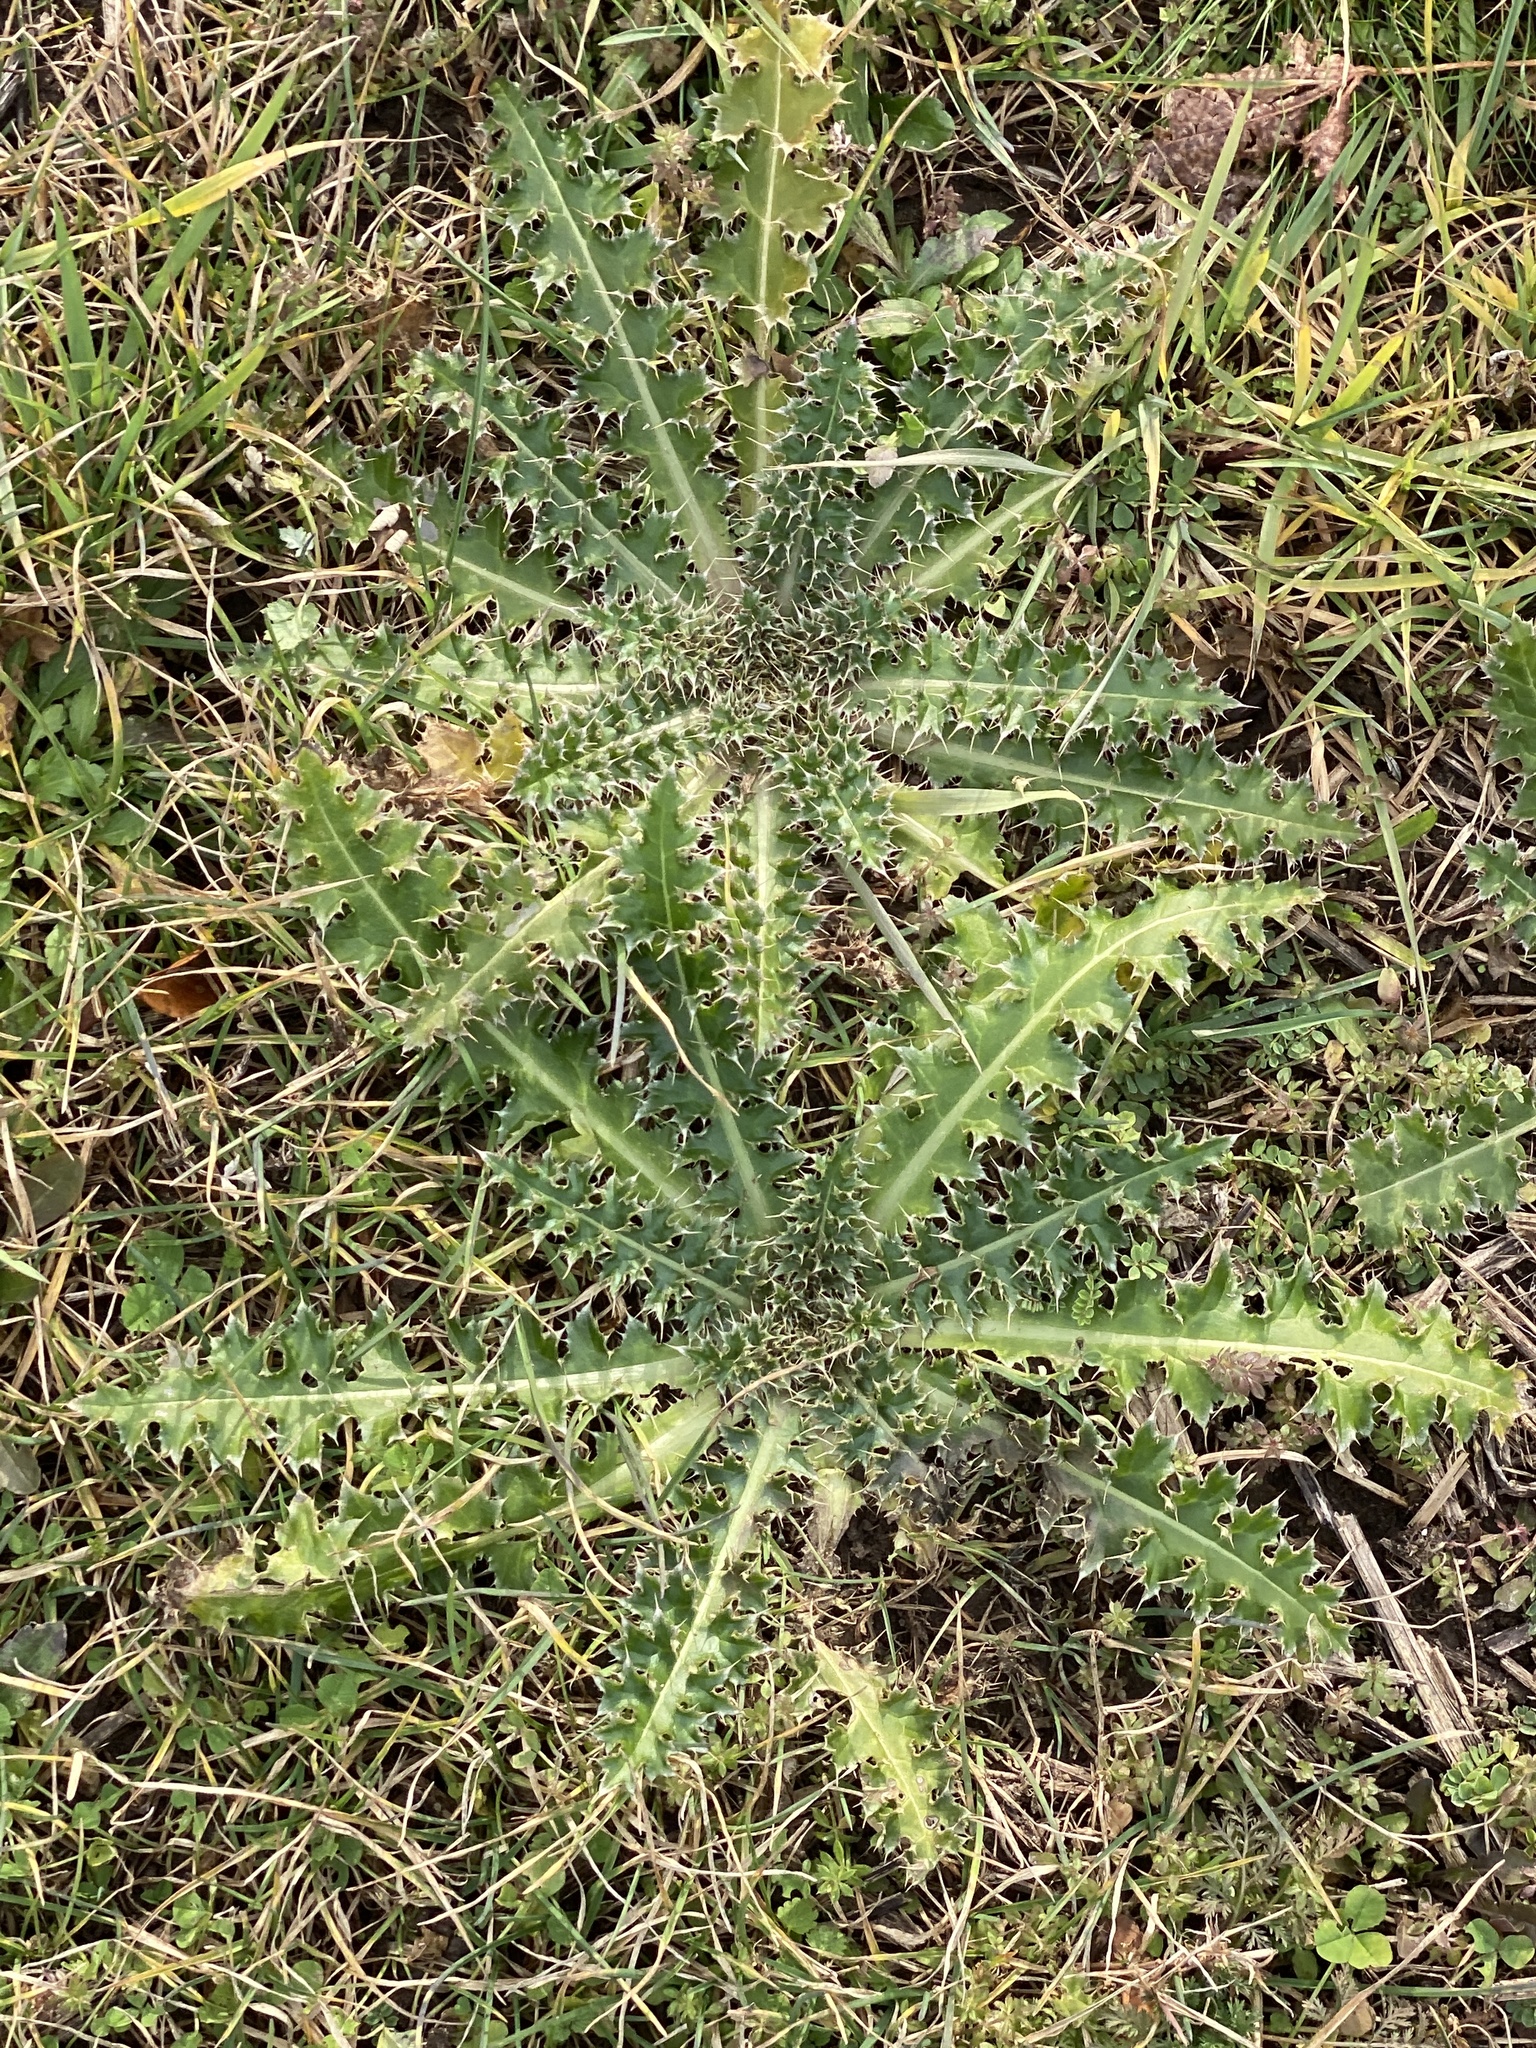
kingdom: Plantae
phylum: Tracheophyta
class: Magnoliopsida
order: Asterales
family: Asteraceae
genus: Carduus
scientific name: Carduus nutans
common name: Musk thistle
